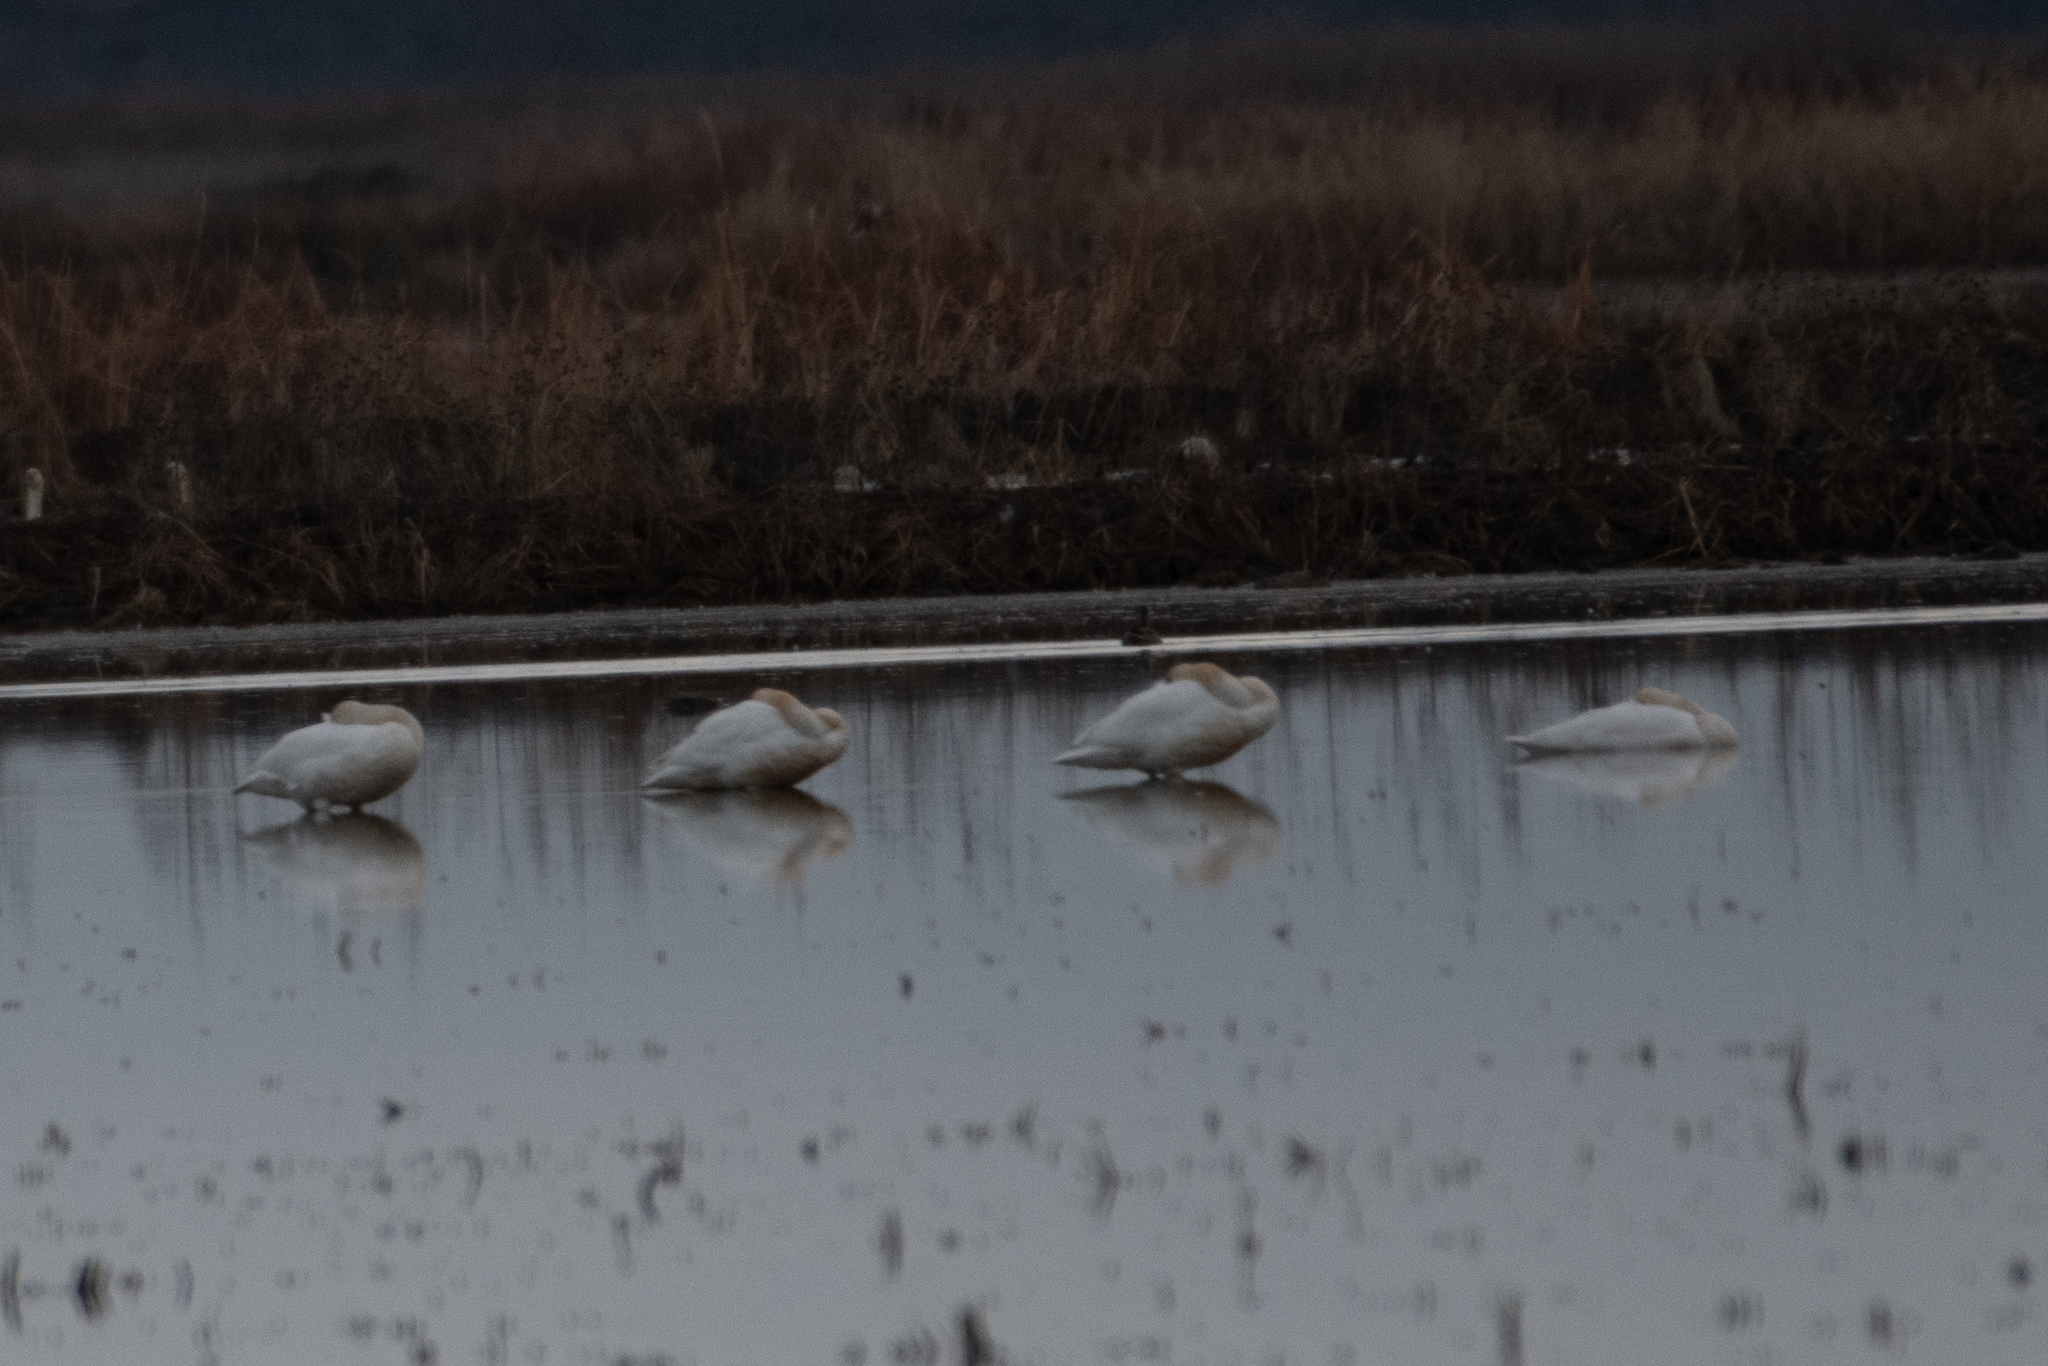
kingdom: Animalia
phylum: Chordata
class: Aves
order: Anseriformes
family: Anatidae
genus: Cygnus
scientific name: Cygnus columbianus
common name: Tundra swan
